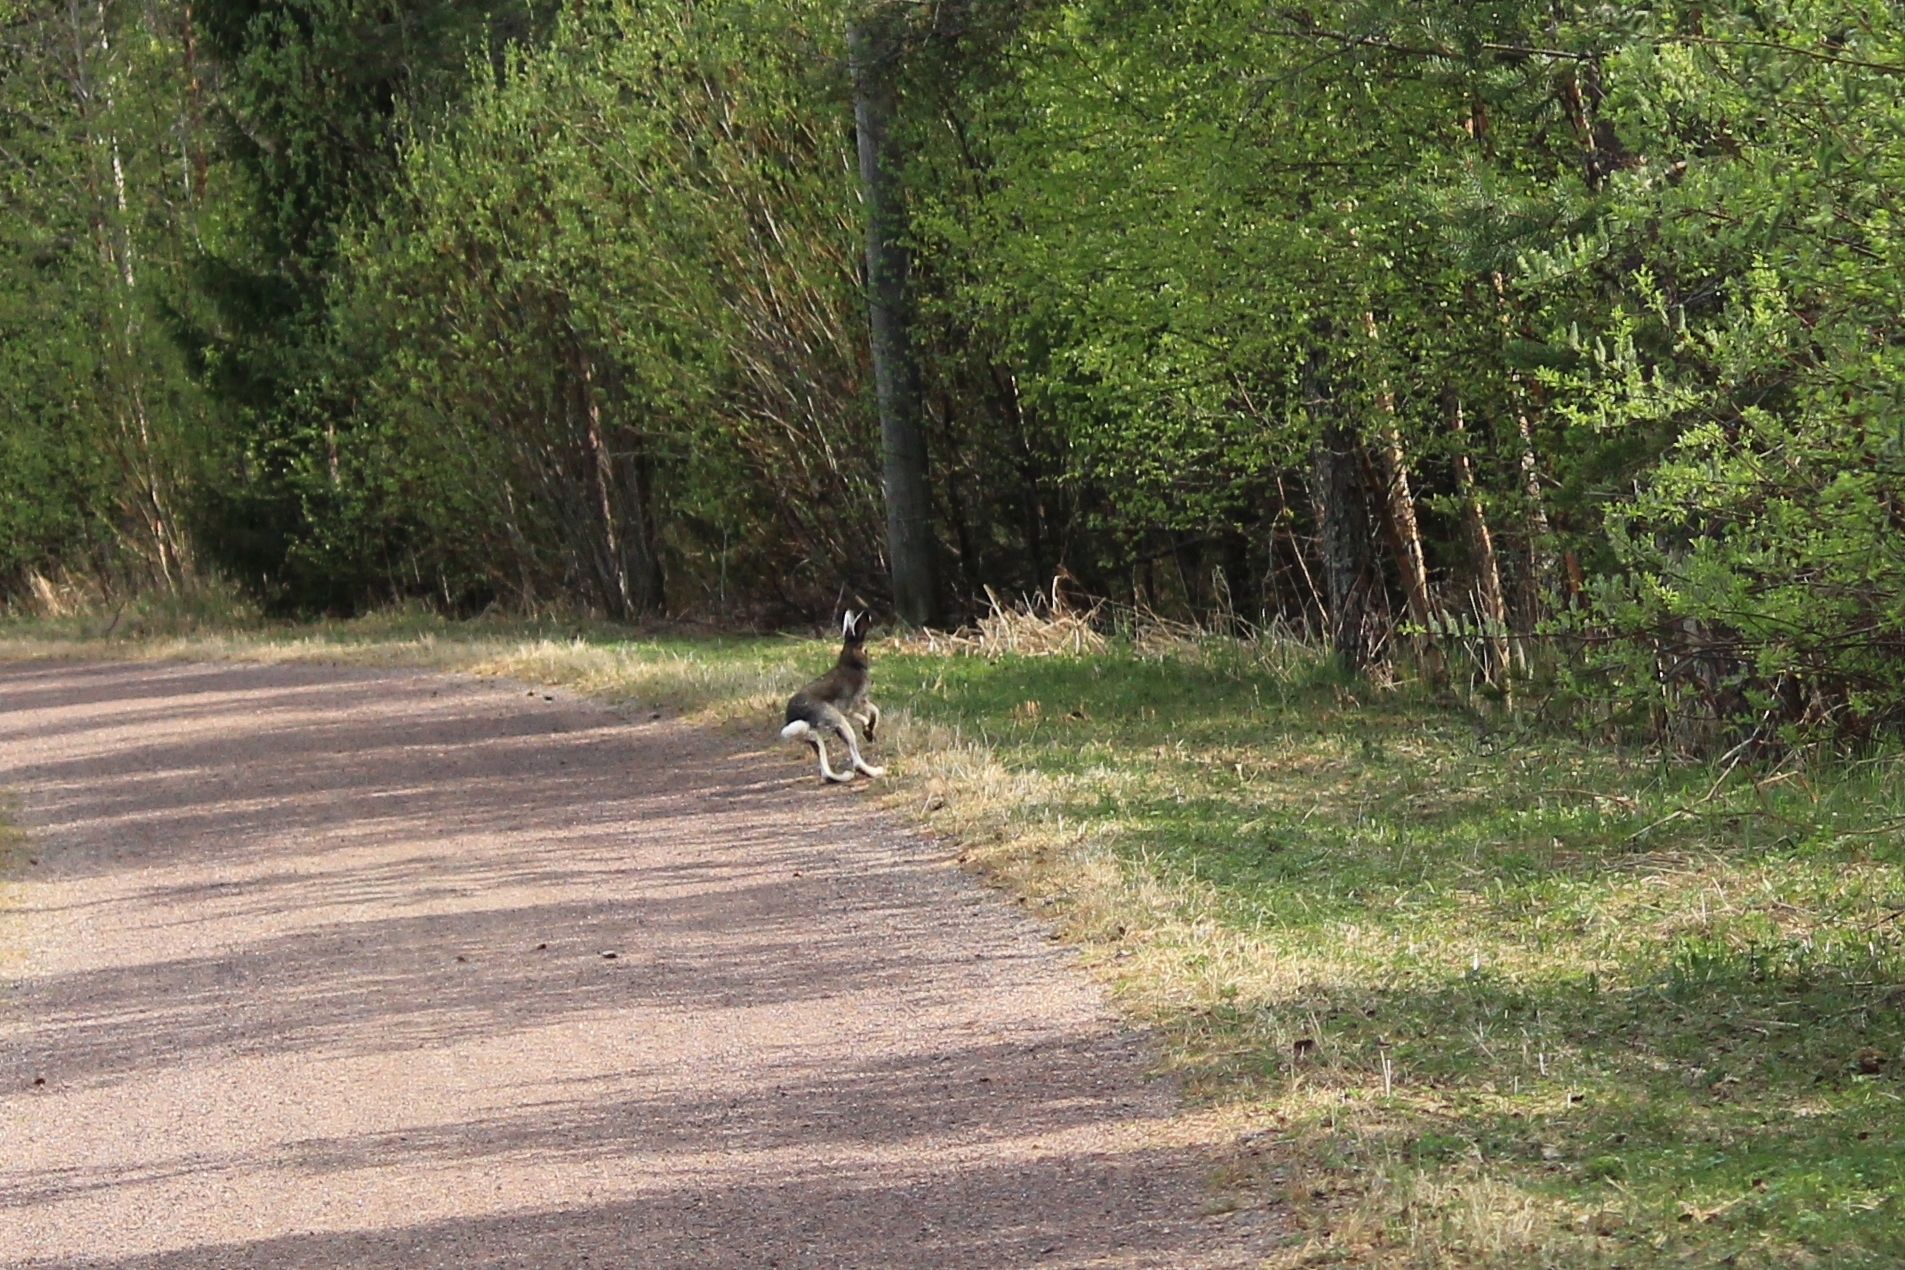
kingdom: Animalia
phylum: Chordata
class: Mammalia
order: Lagomorpha
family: Leporidae
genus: Lepus
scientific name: Lepus timidus
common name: Mountain hare
